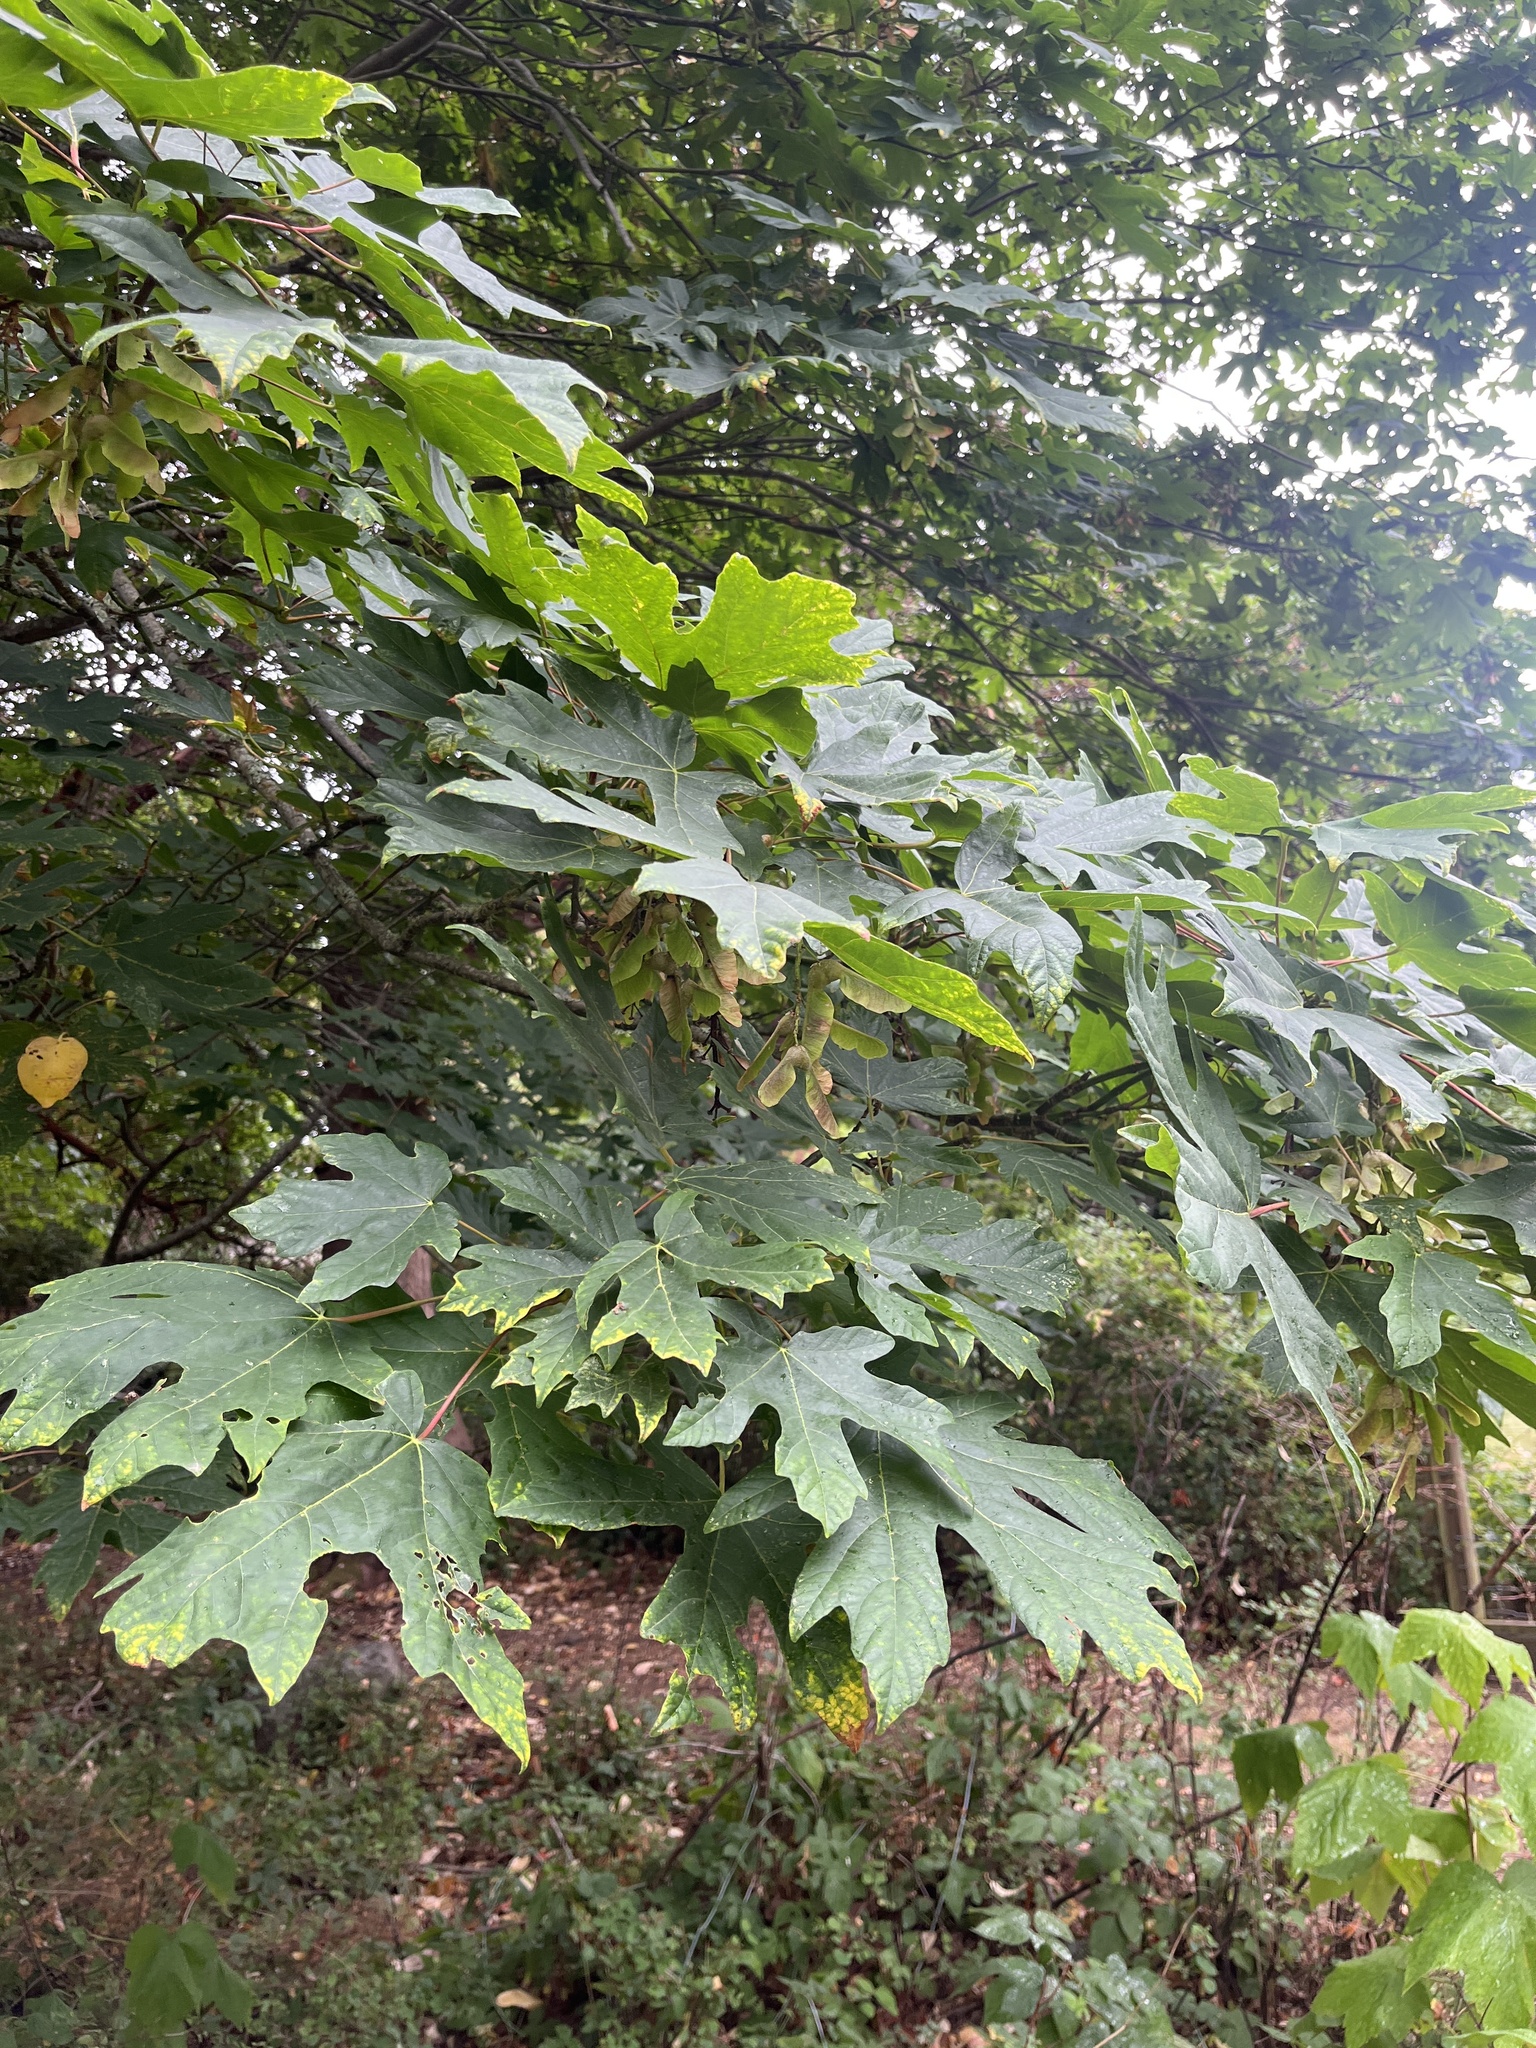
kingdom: Plantae
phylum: Tracheophyta
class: Magnoliopsida
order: Sapindales
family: Sapindaceae
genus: Acer
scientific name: Acer macrophyllum
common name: Oregon maple
